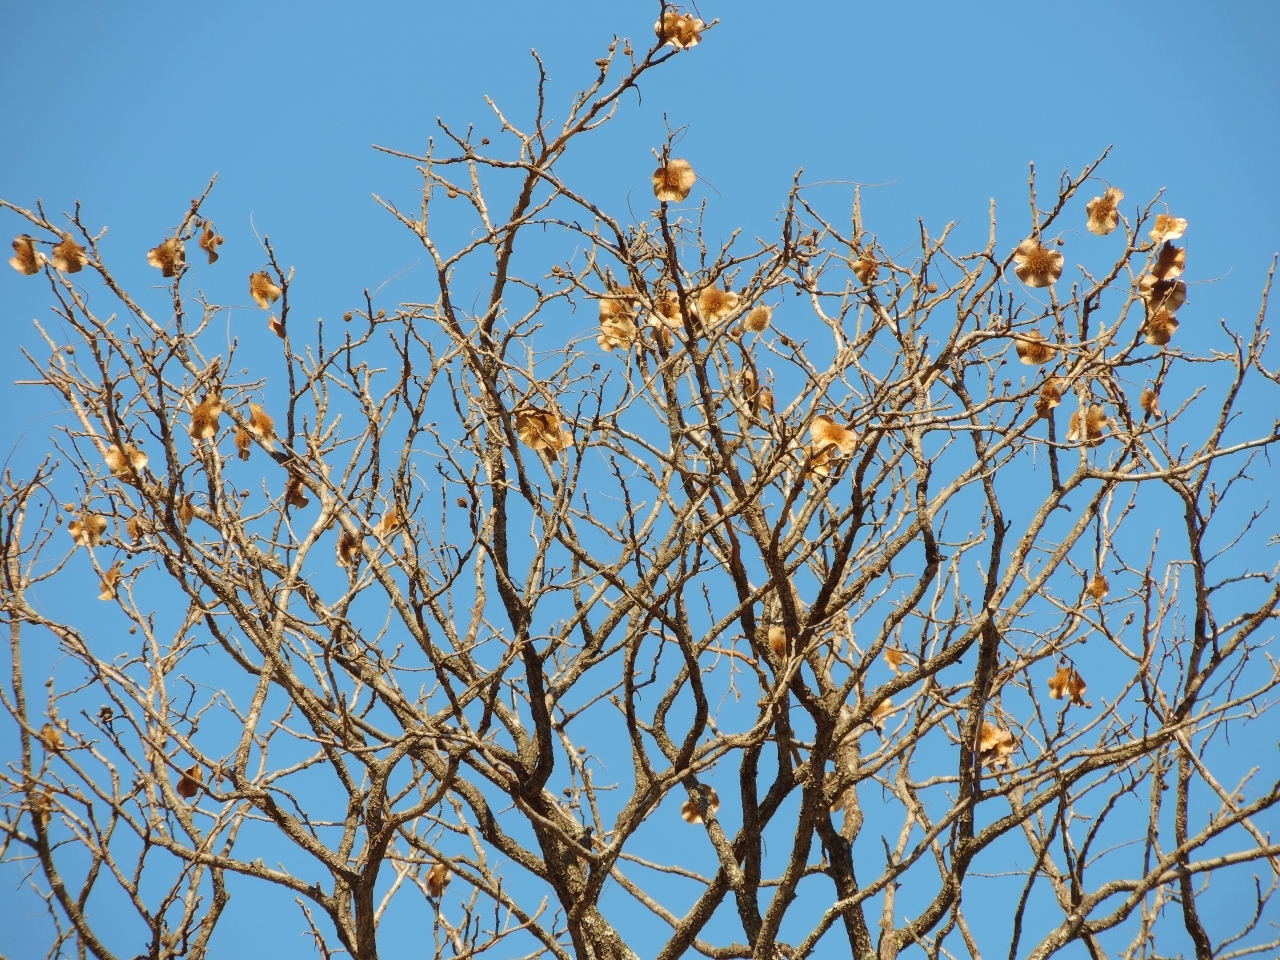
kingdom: Plantae
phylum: Tracheophyta
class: Magnoliopsida
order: Fabales
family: Fabaceae
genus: Pterocarpus
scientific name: Pterocarpus angolensis
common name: Bloodwood tree
